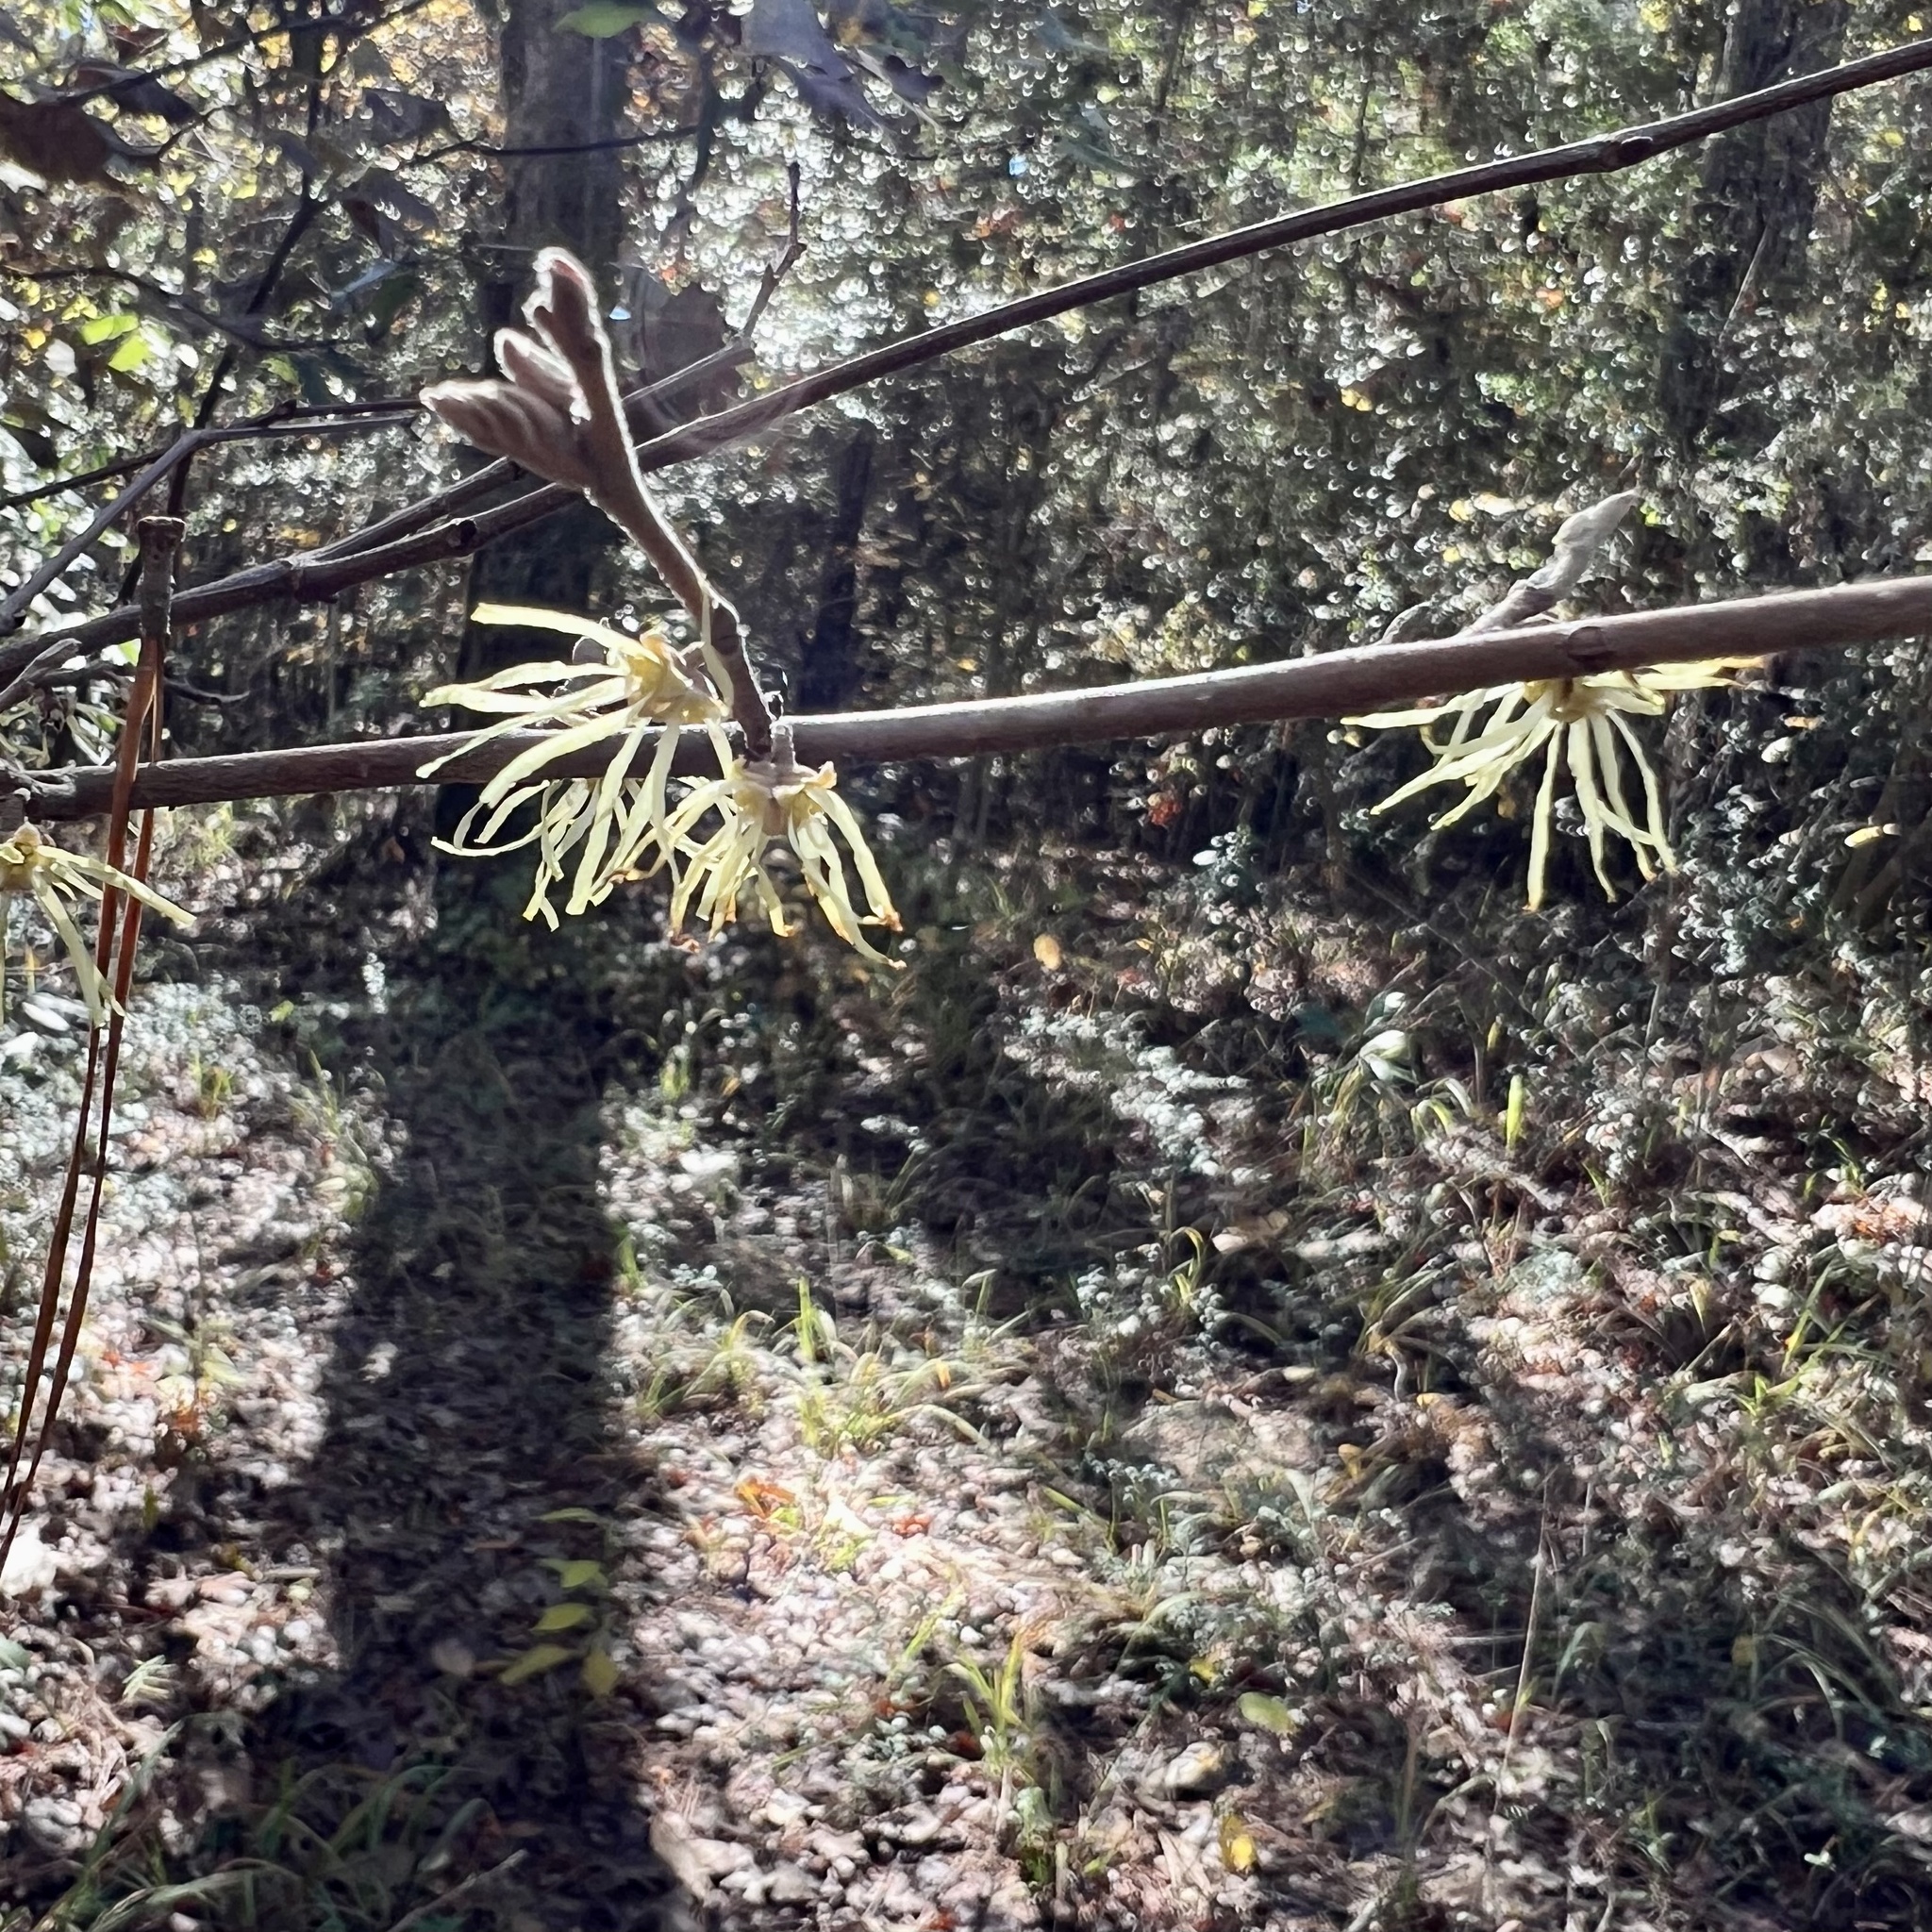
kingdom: Plantae
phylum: Tracheophyta
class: Magnoliopsida
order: Saxifragales
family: Hamamelidaceae
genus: Hamamelis
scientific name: Hamamelis virginiana
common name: Witch-hazel
